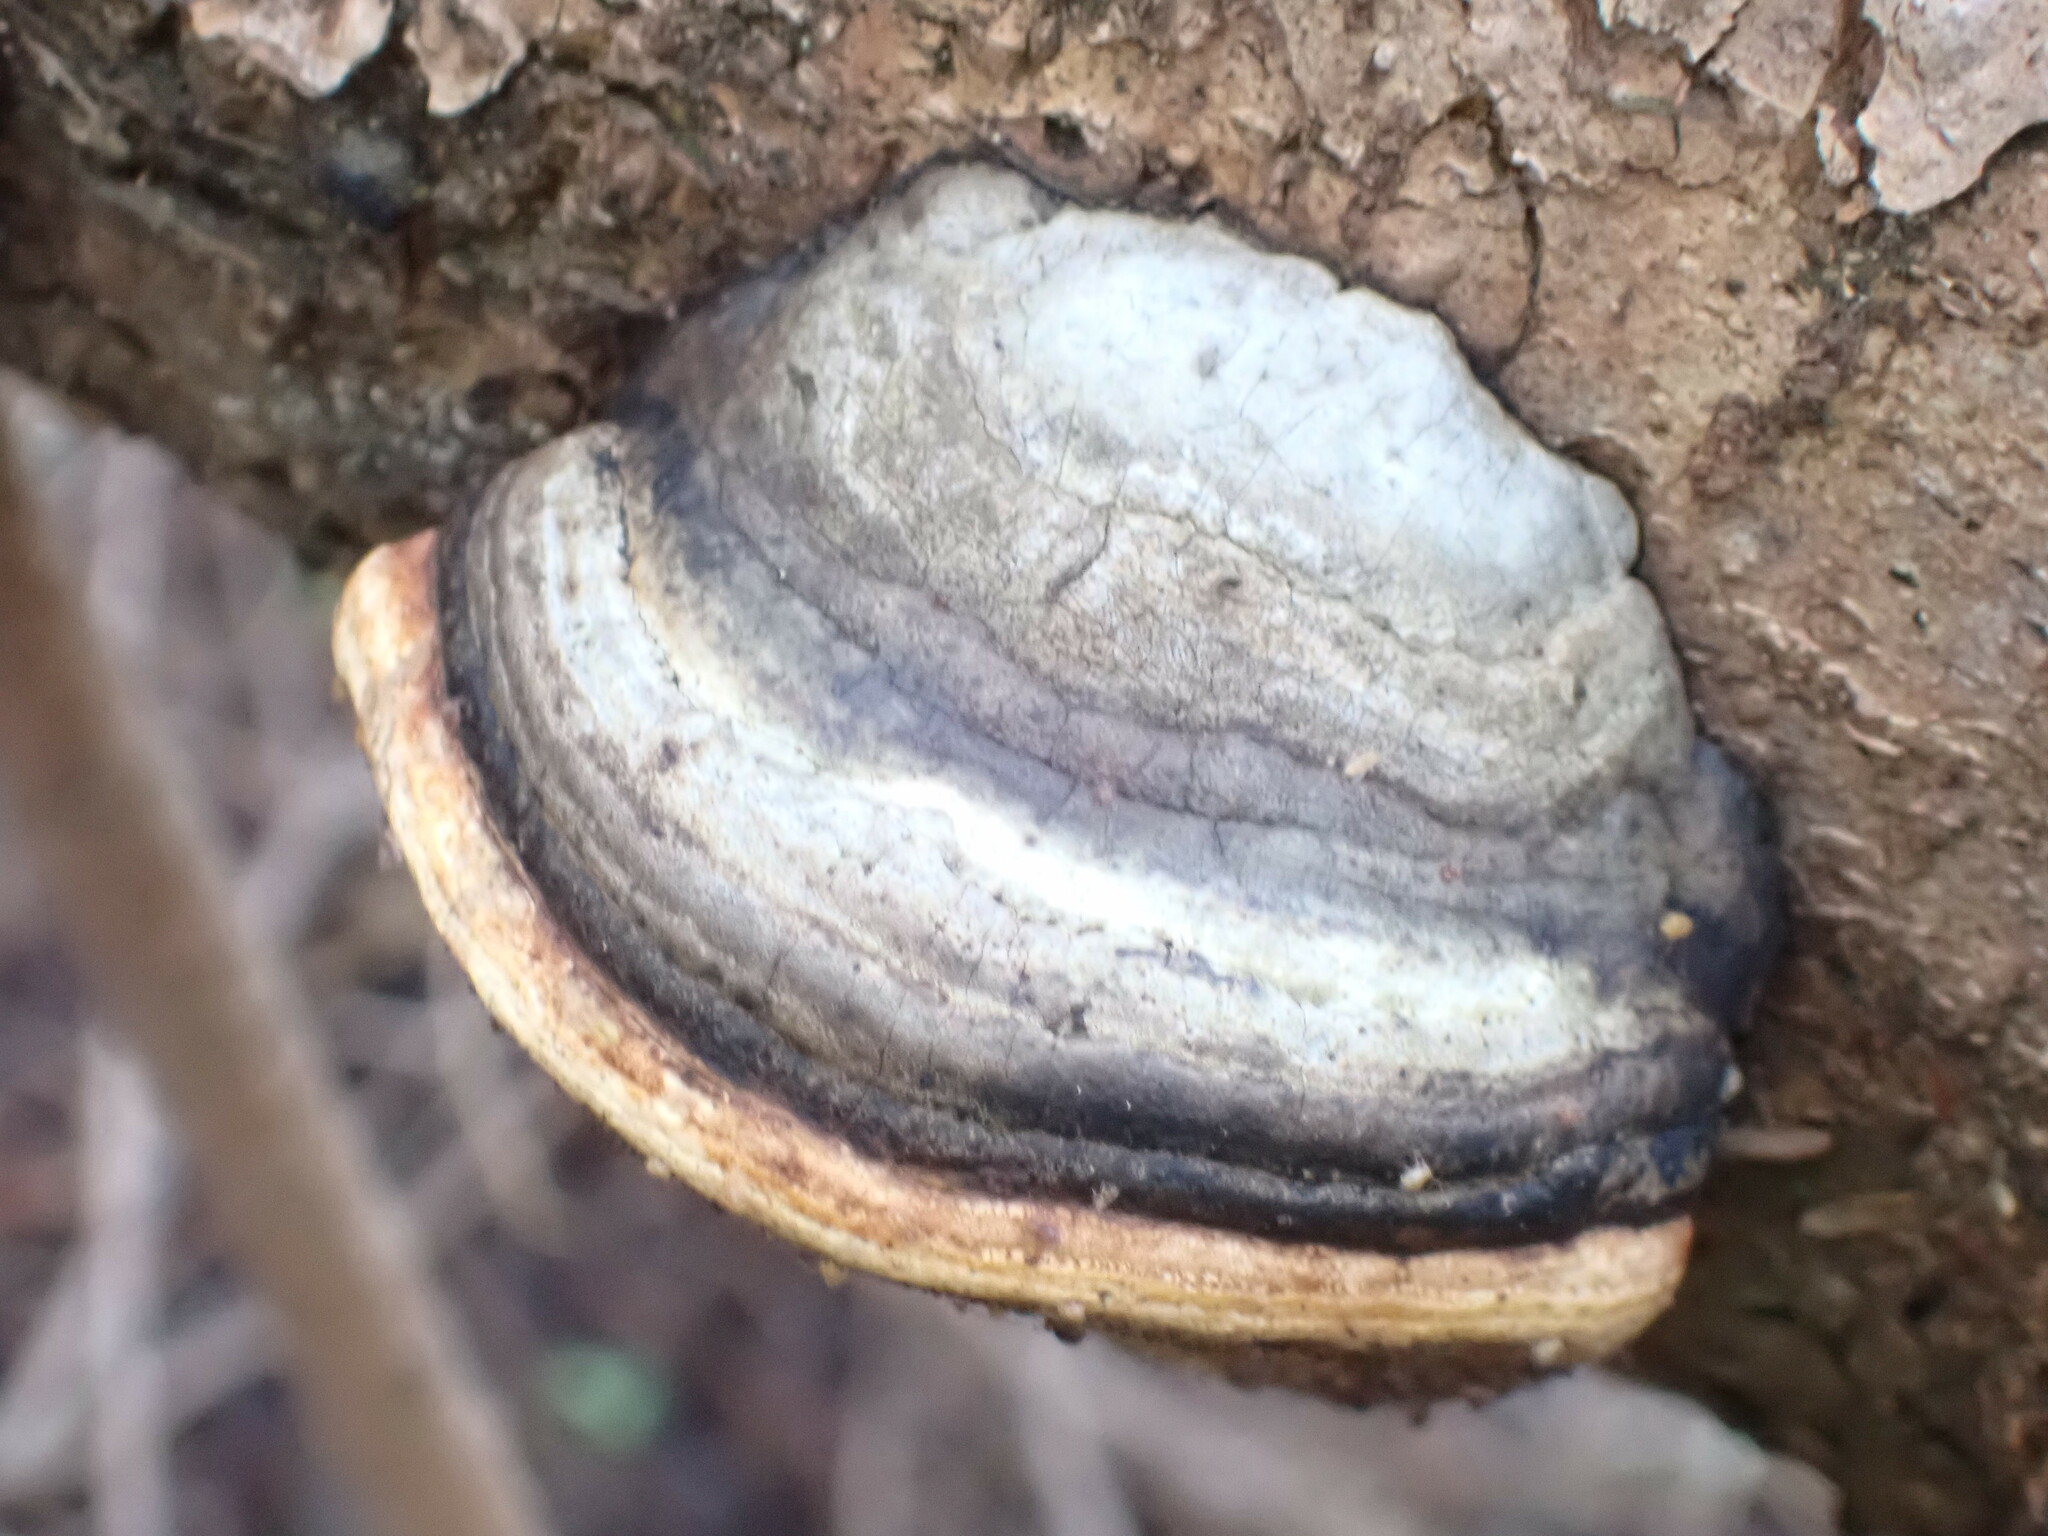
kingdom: Fungi
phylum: Basidiomycota
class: Agaricomycetes
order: Polyporales
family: Fomitopsidaceae
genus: Fomitopsis
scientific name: Fomitopsis mounceae
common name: Northern red belt
